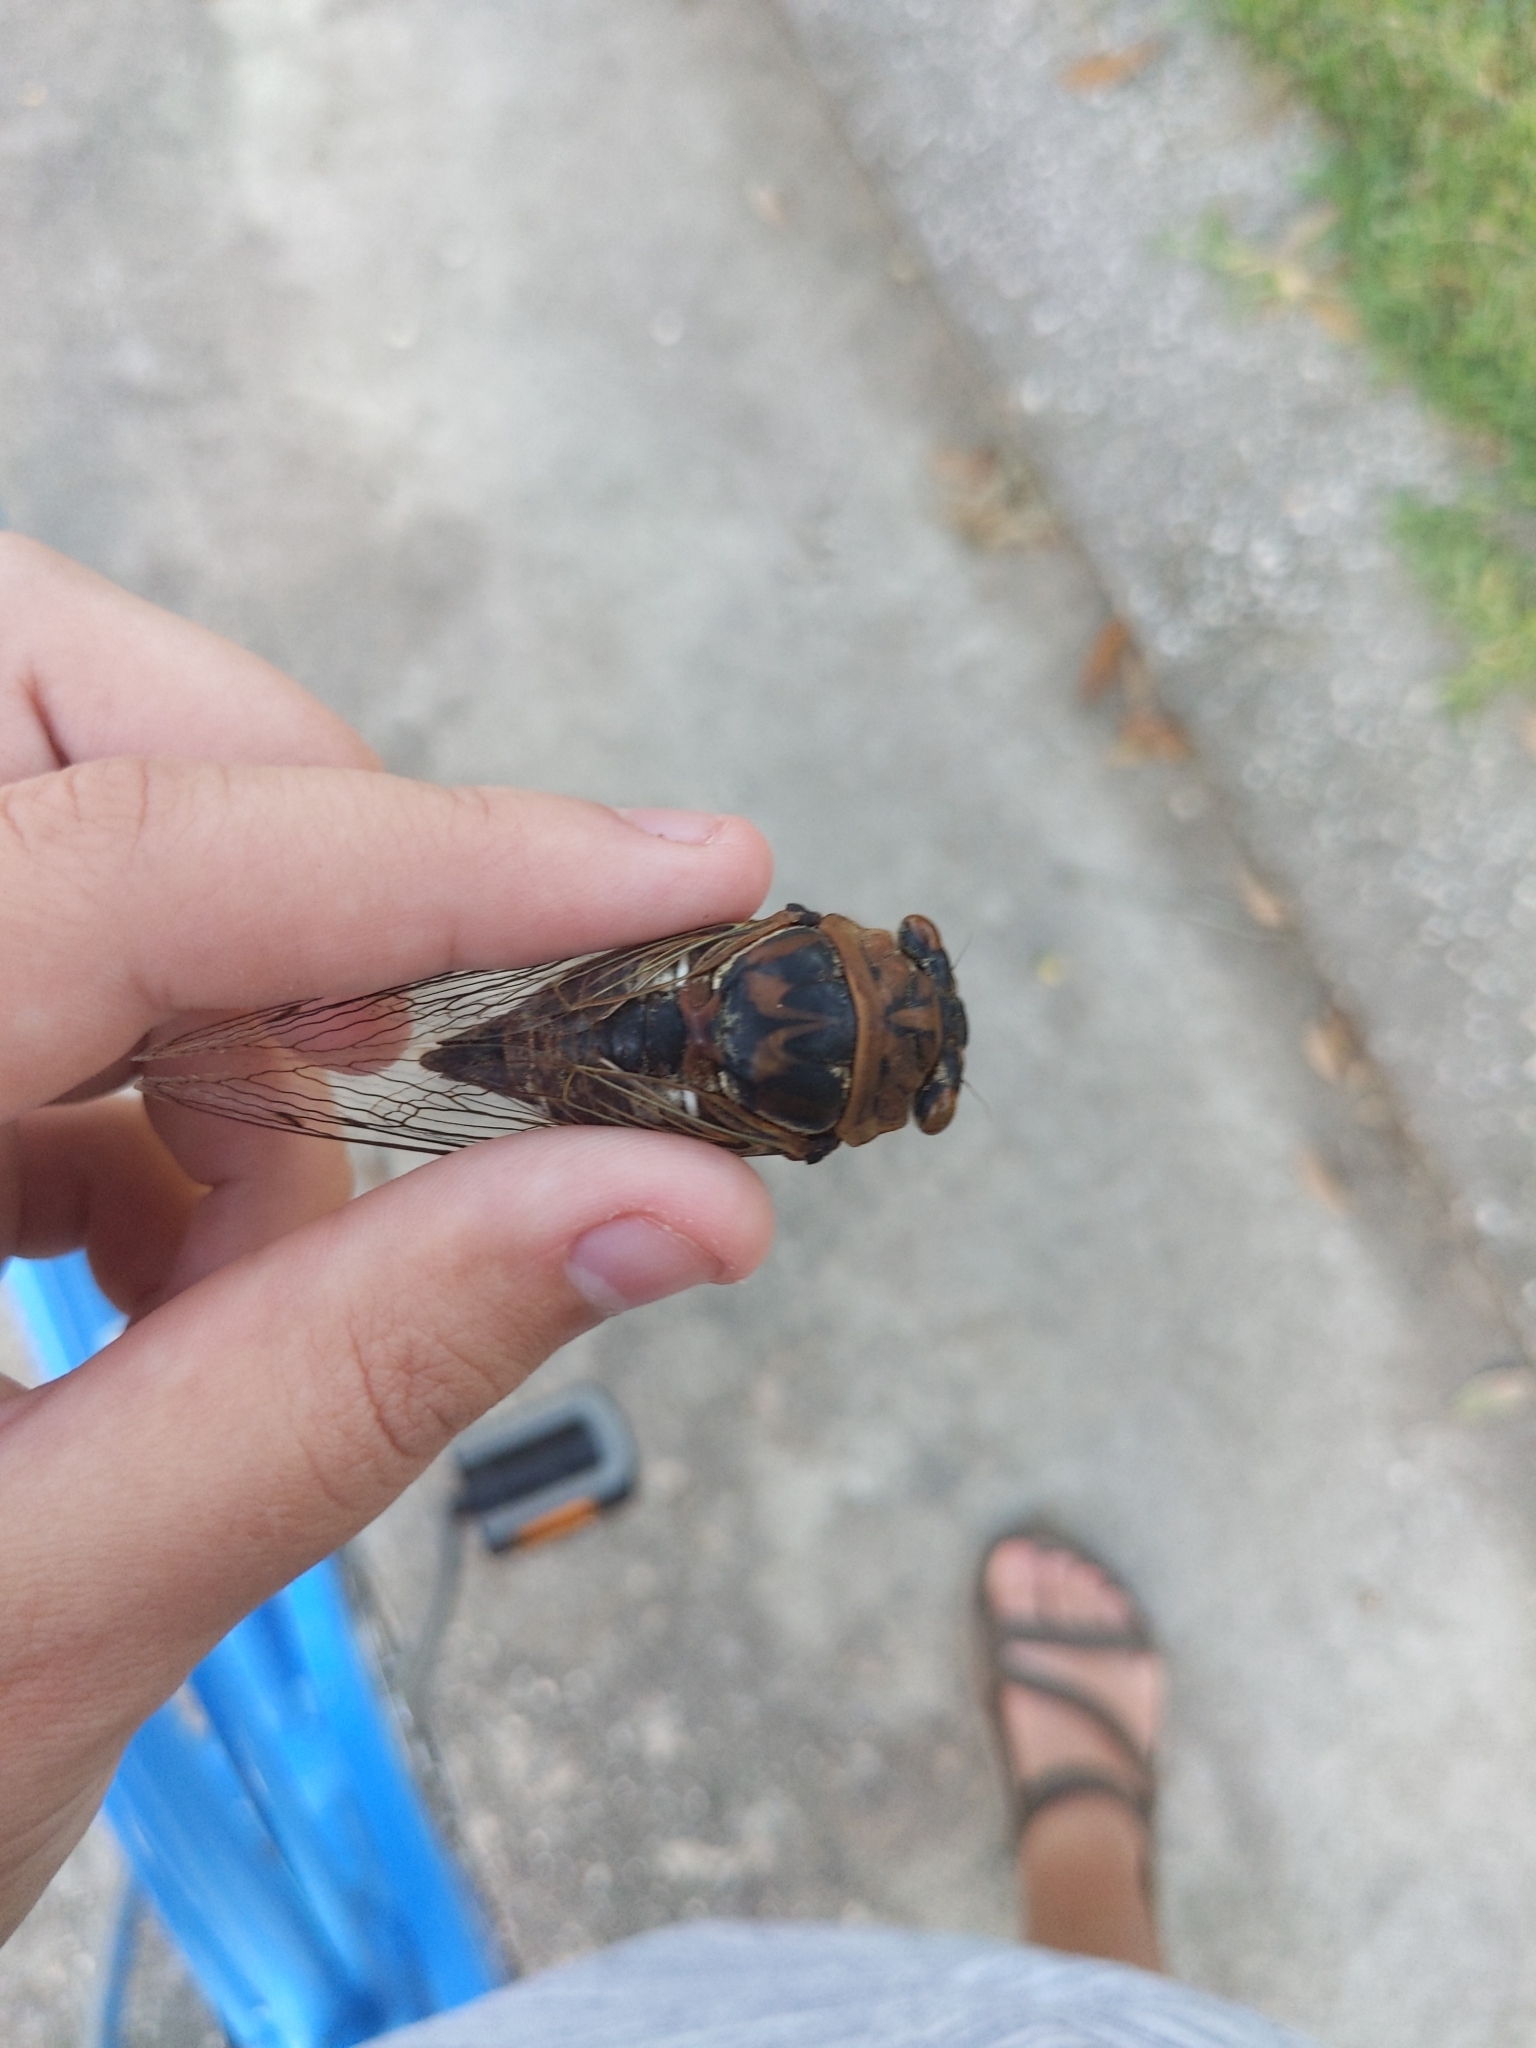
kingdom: Animalia
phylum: Arthropoda
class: Insecta
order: Hemiptera
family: Cicadidae
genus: Megatibicen
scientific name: Megatibicen resh
